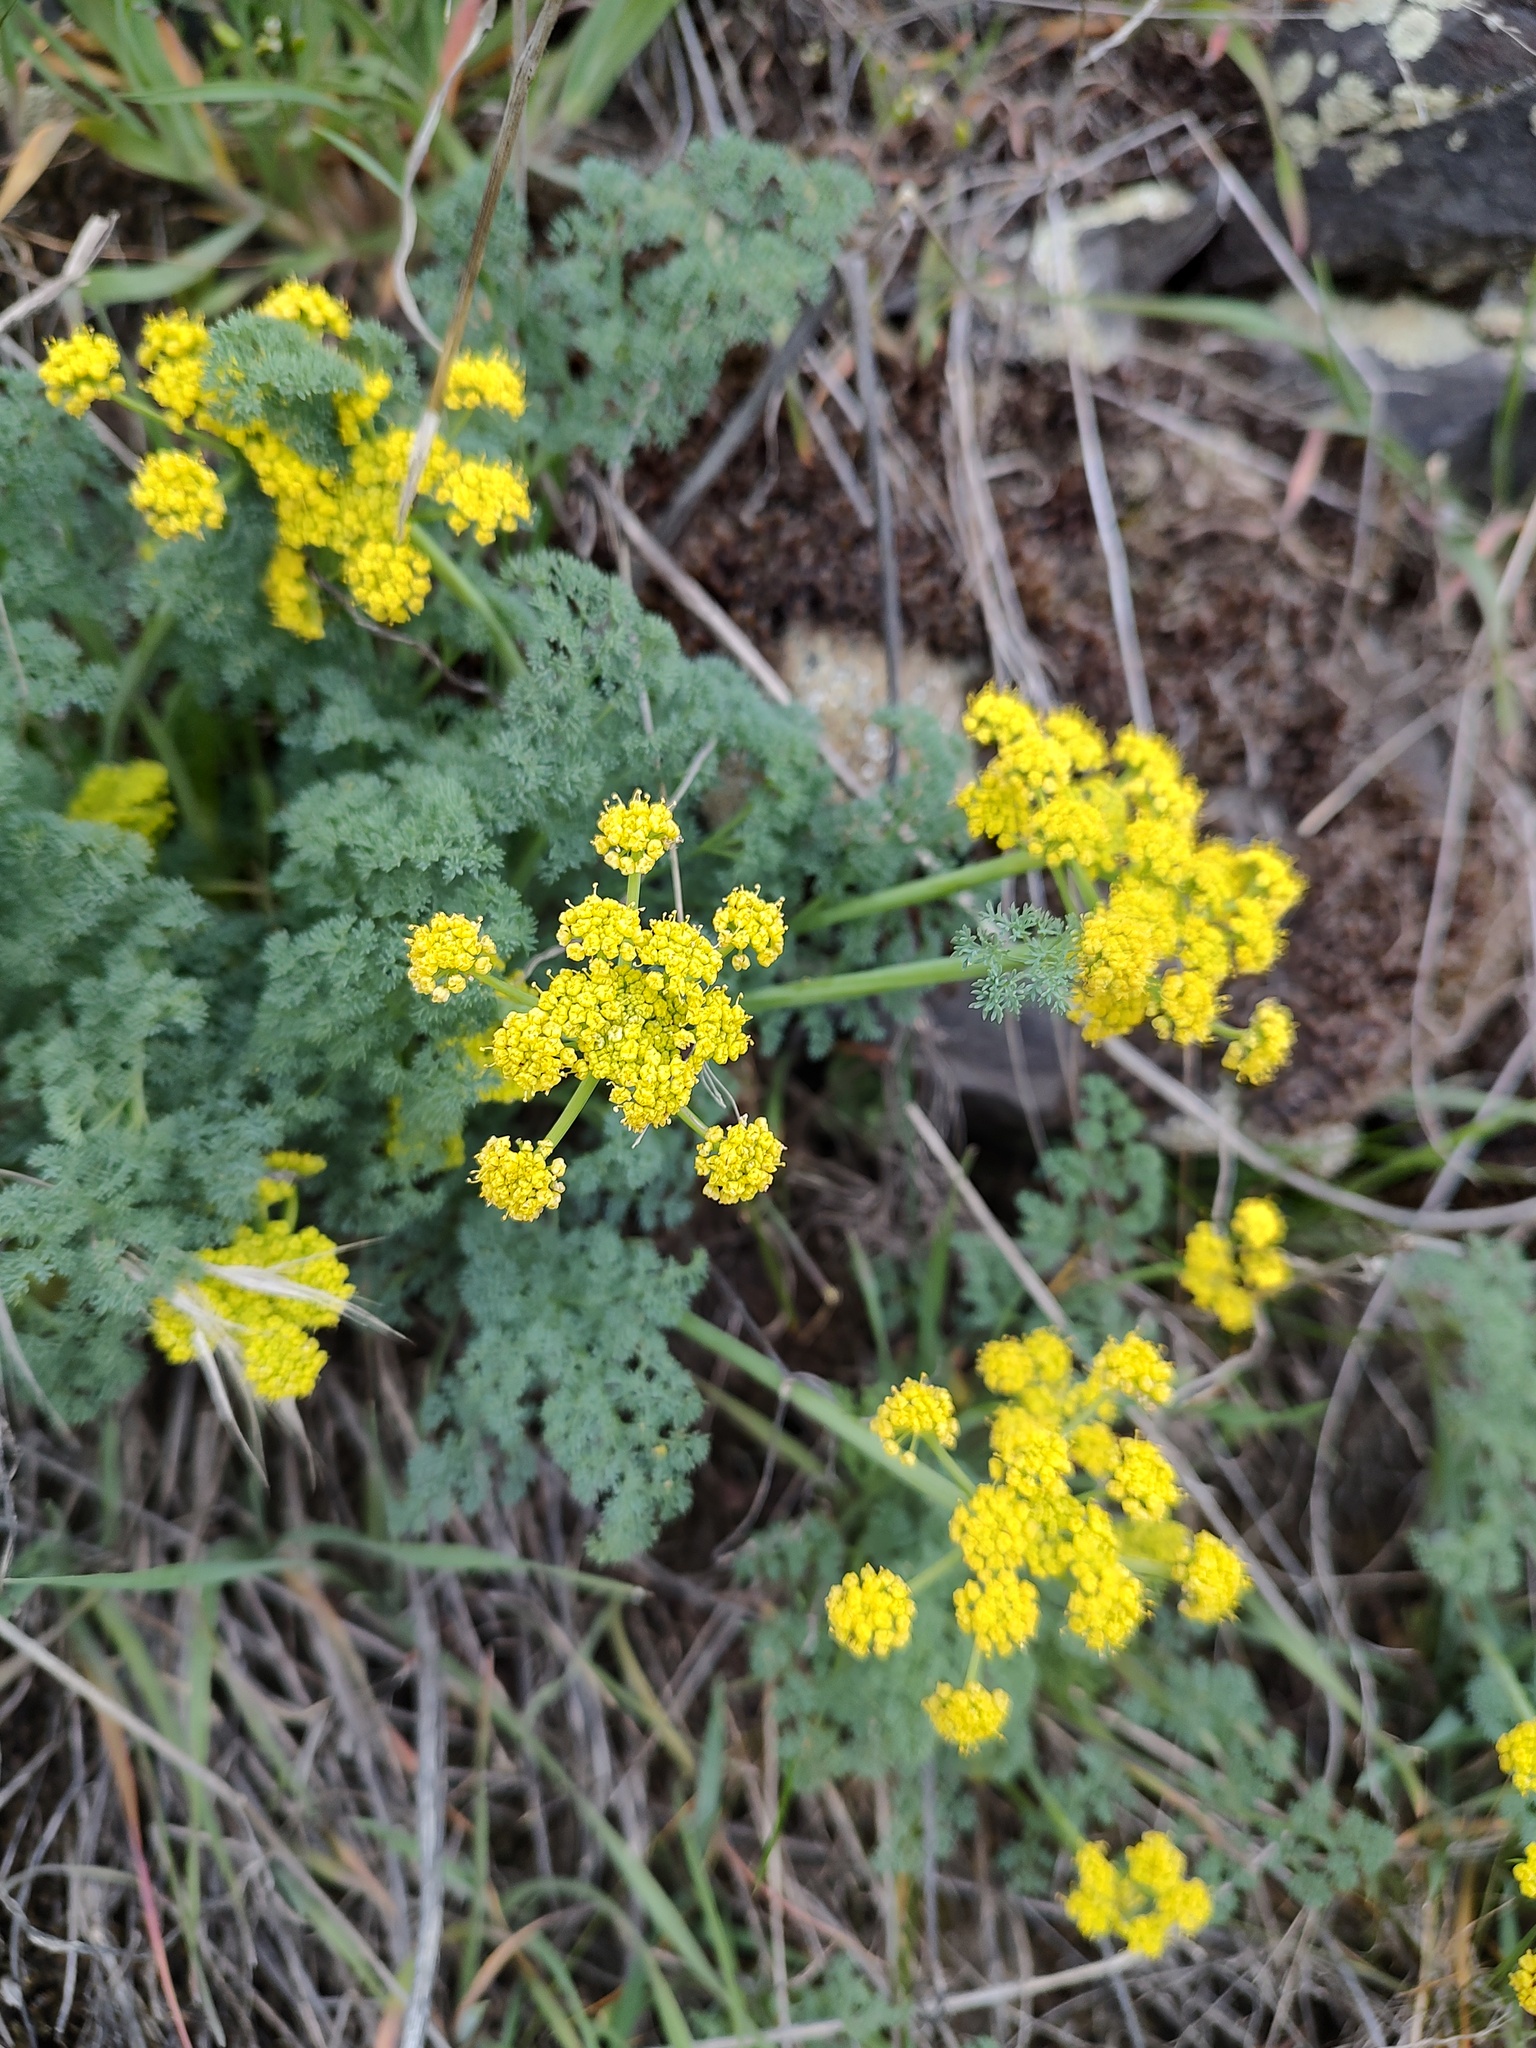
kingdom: Plantae
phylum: Tracheophyta
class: Magnoliopsida
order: Apiales
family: Apiaceae
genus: Lomatium
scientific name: Lomatium papilioniferum
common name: Butterfly lomatium
